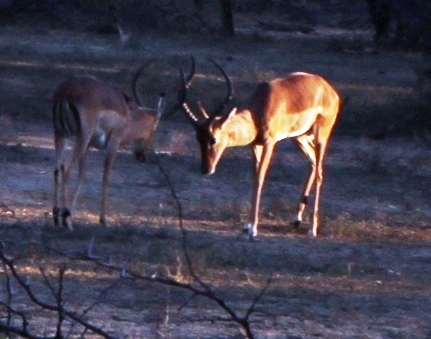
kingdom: Animalia
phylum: Chordata
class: Mammalia
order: Artiodactyla
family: Bovidae
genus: Aepyceros
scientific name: Aepyceros melampus
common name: Impala
